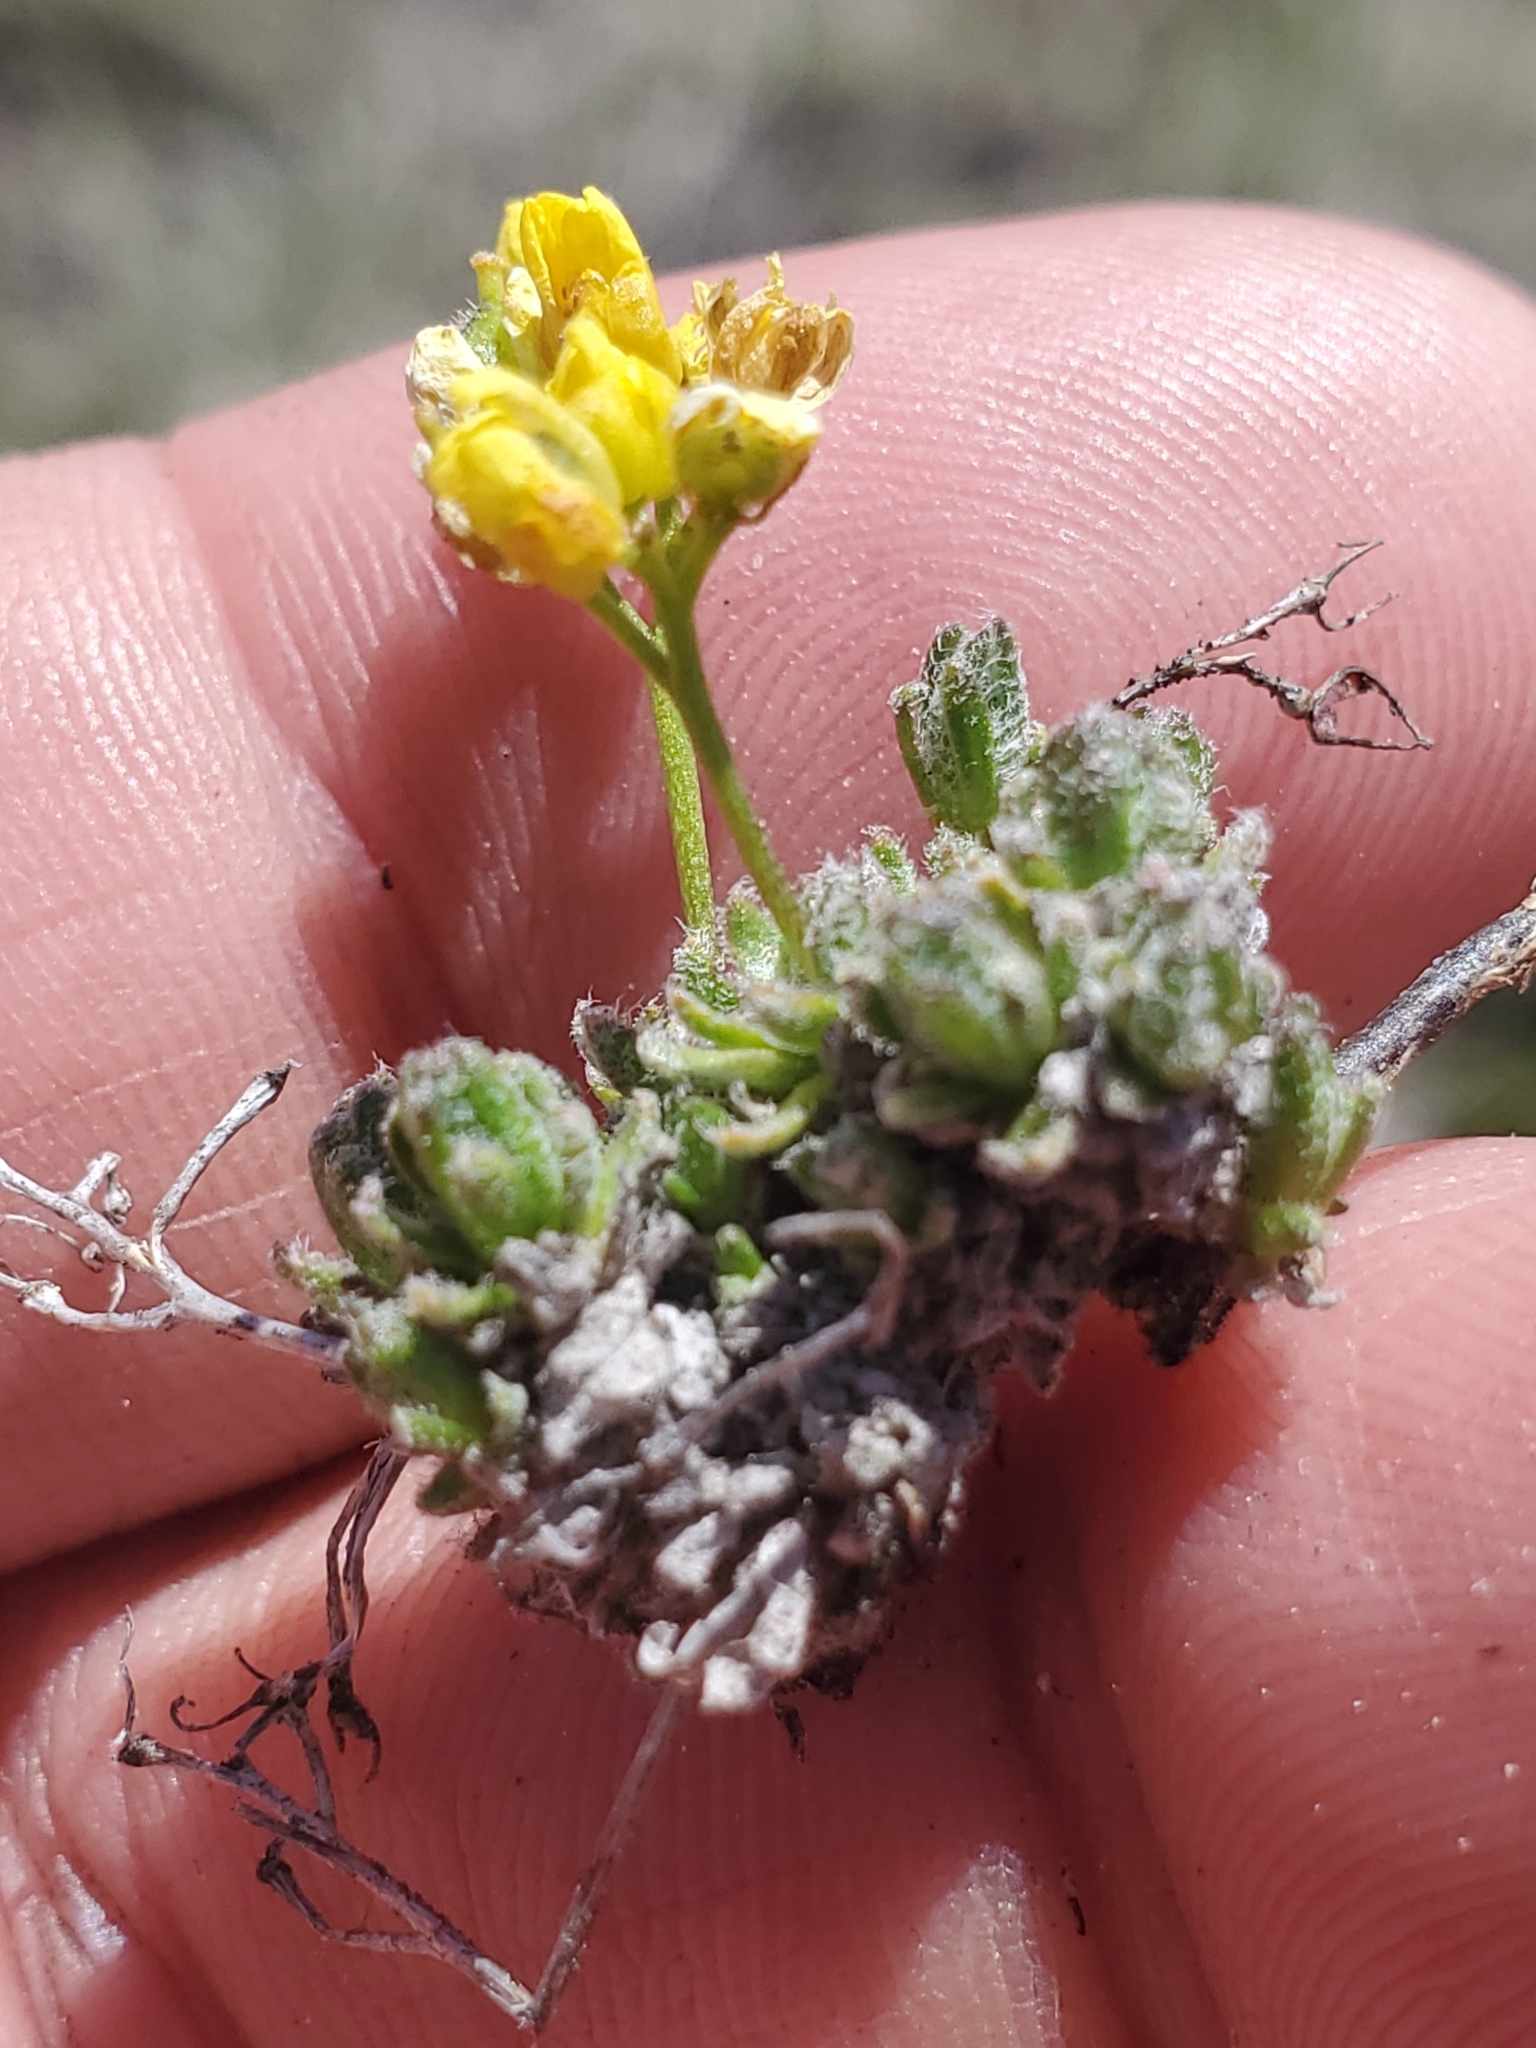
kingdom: Plantae
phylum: Tracheophyta
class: Magnoliopsida
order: Brassicales
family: Brassicaceae
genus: Draba
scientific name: Draba oligosperma
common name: Few-seed draba
